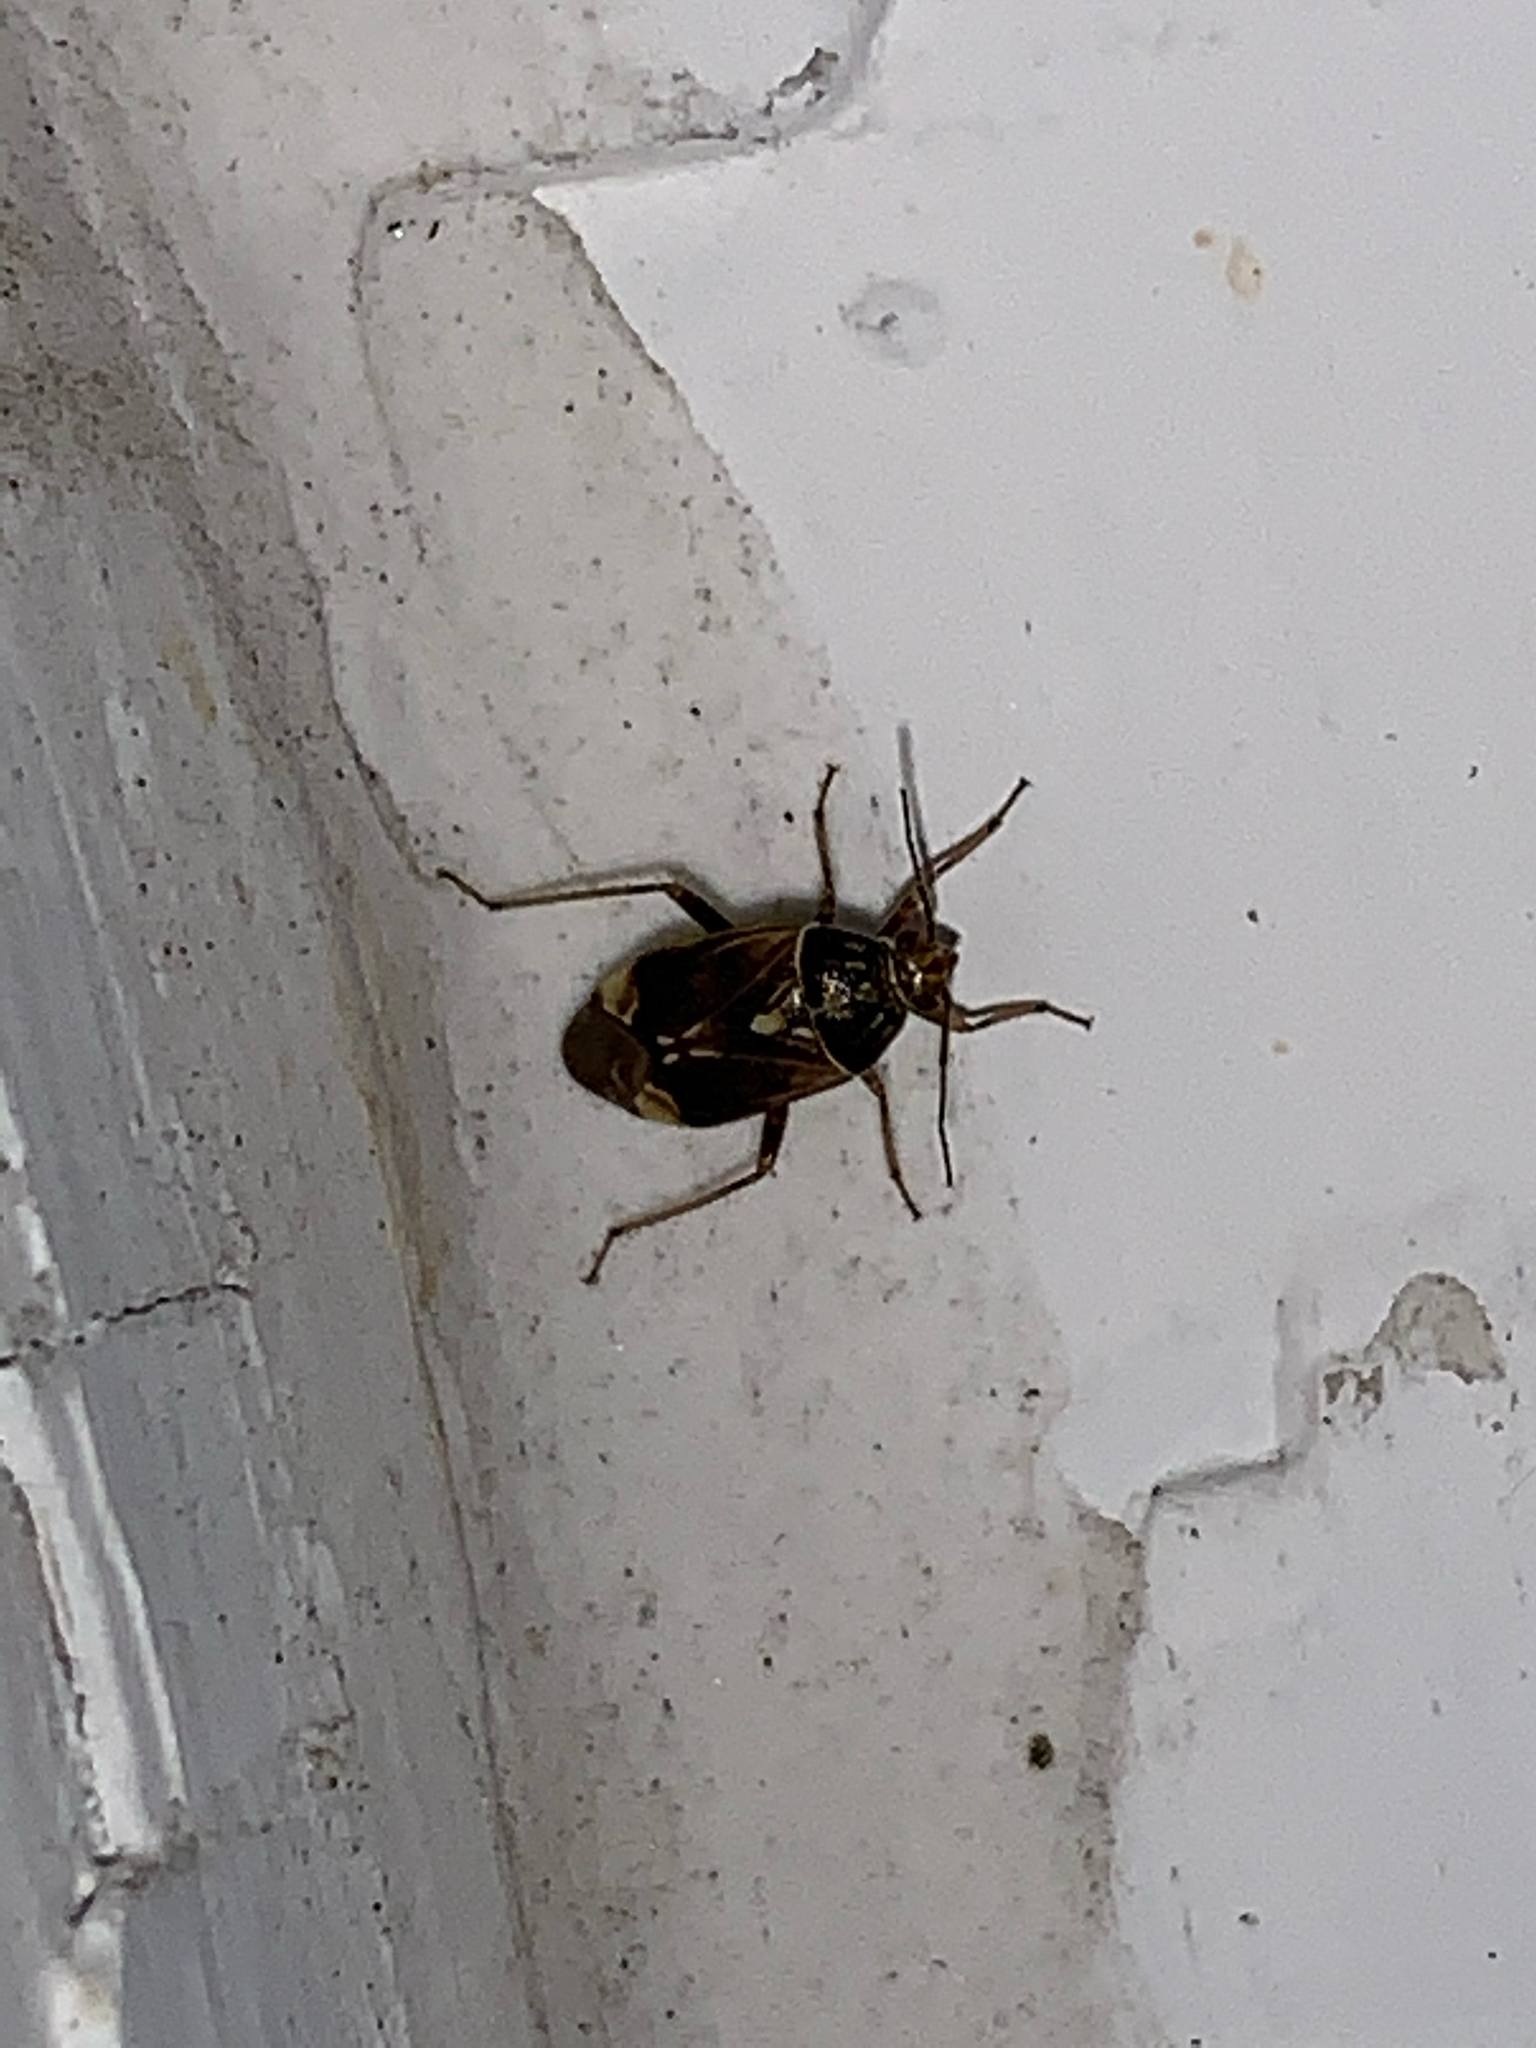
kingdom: Animalia
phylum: Arthropoda
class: Insecta
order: Hemiptera
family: Miridae
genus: Lygus
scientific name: Lygus lineolaris
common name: North american tarnished plant bug
